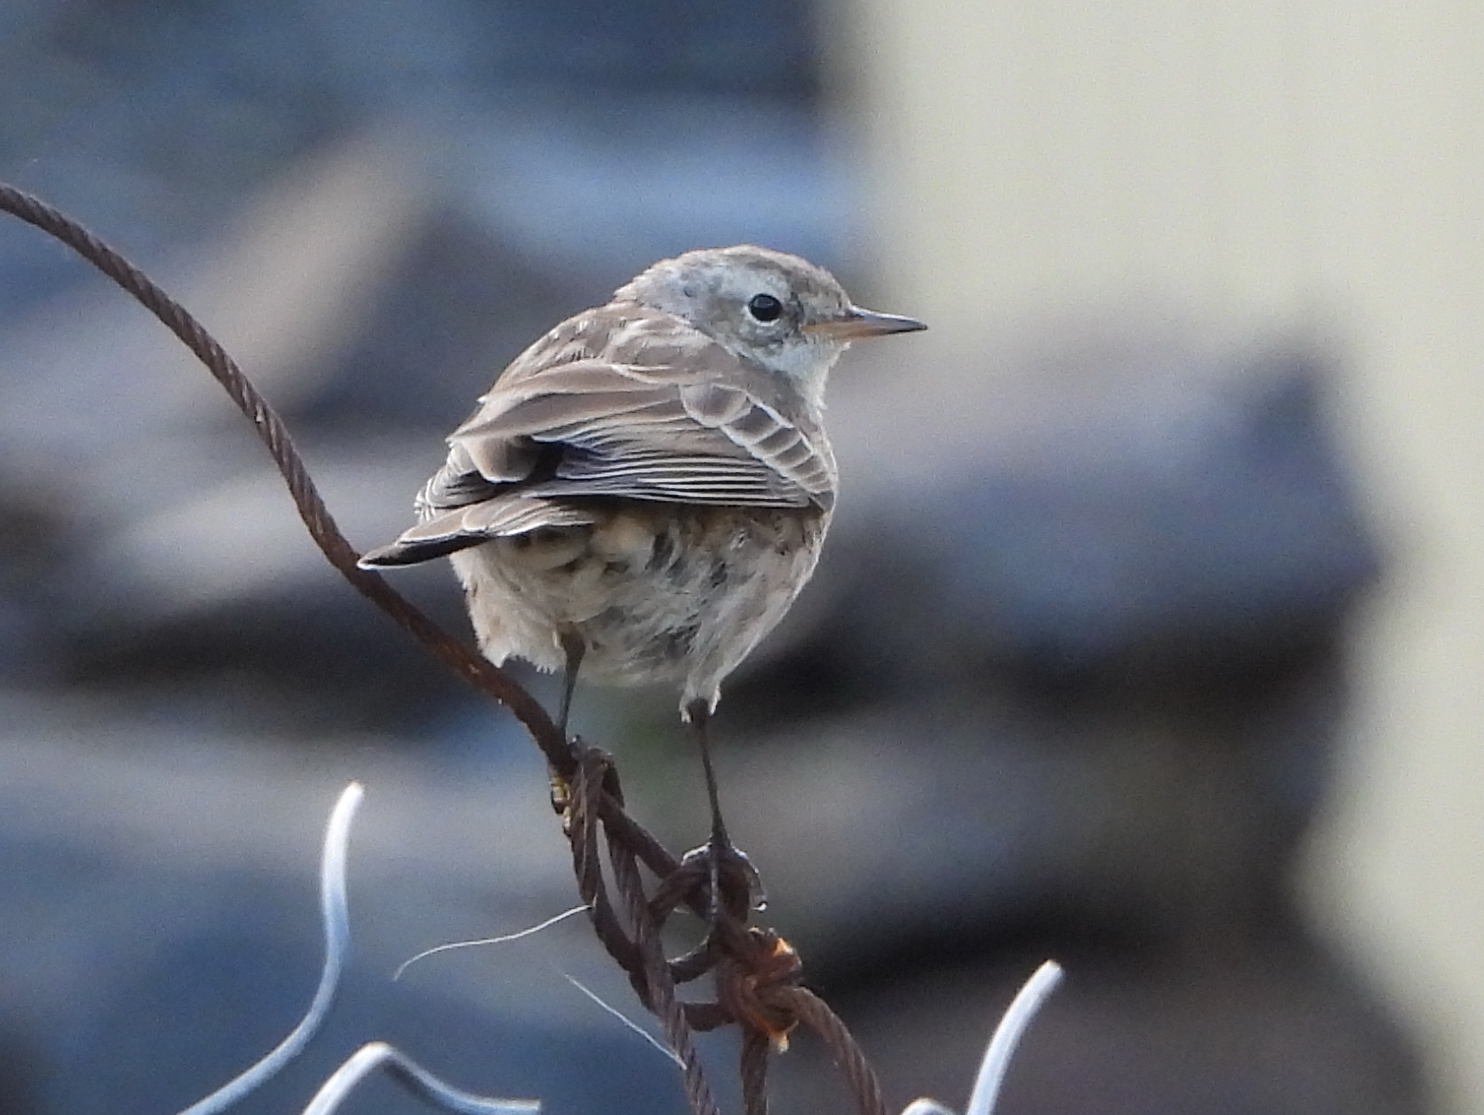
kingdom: Animalia
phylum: Chordata
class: Aves
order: Passeriformes
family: Motacillidae
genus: Anthus
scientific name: Anthus spinoletta
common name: Water pipit
